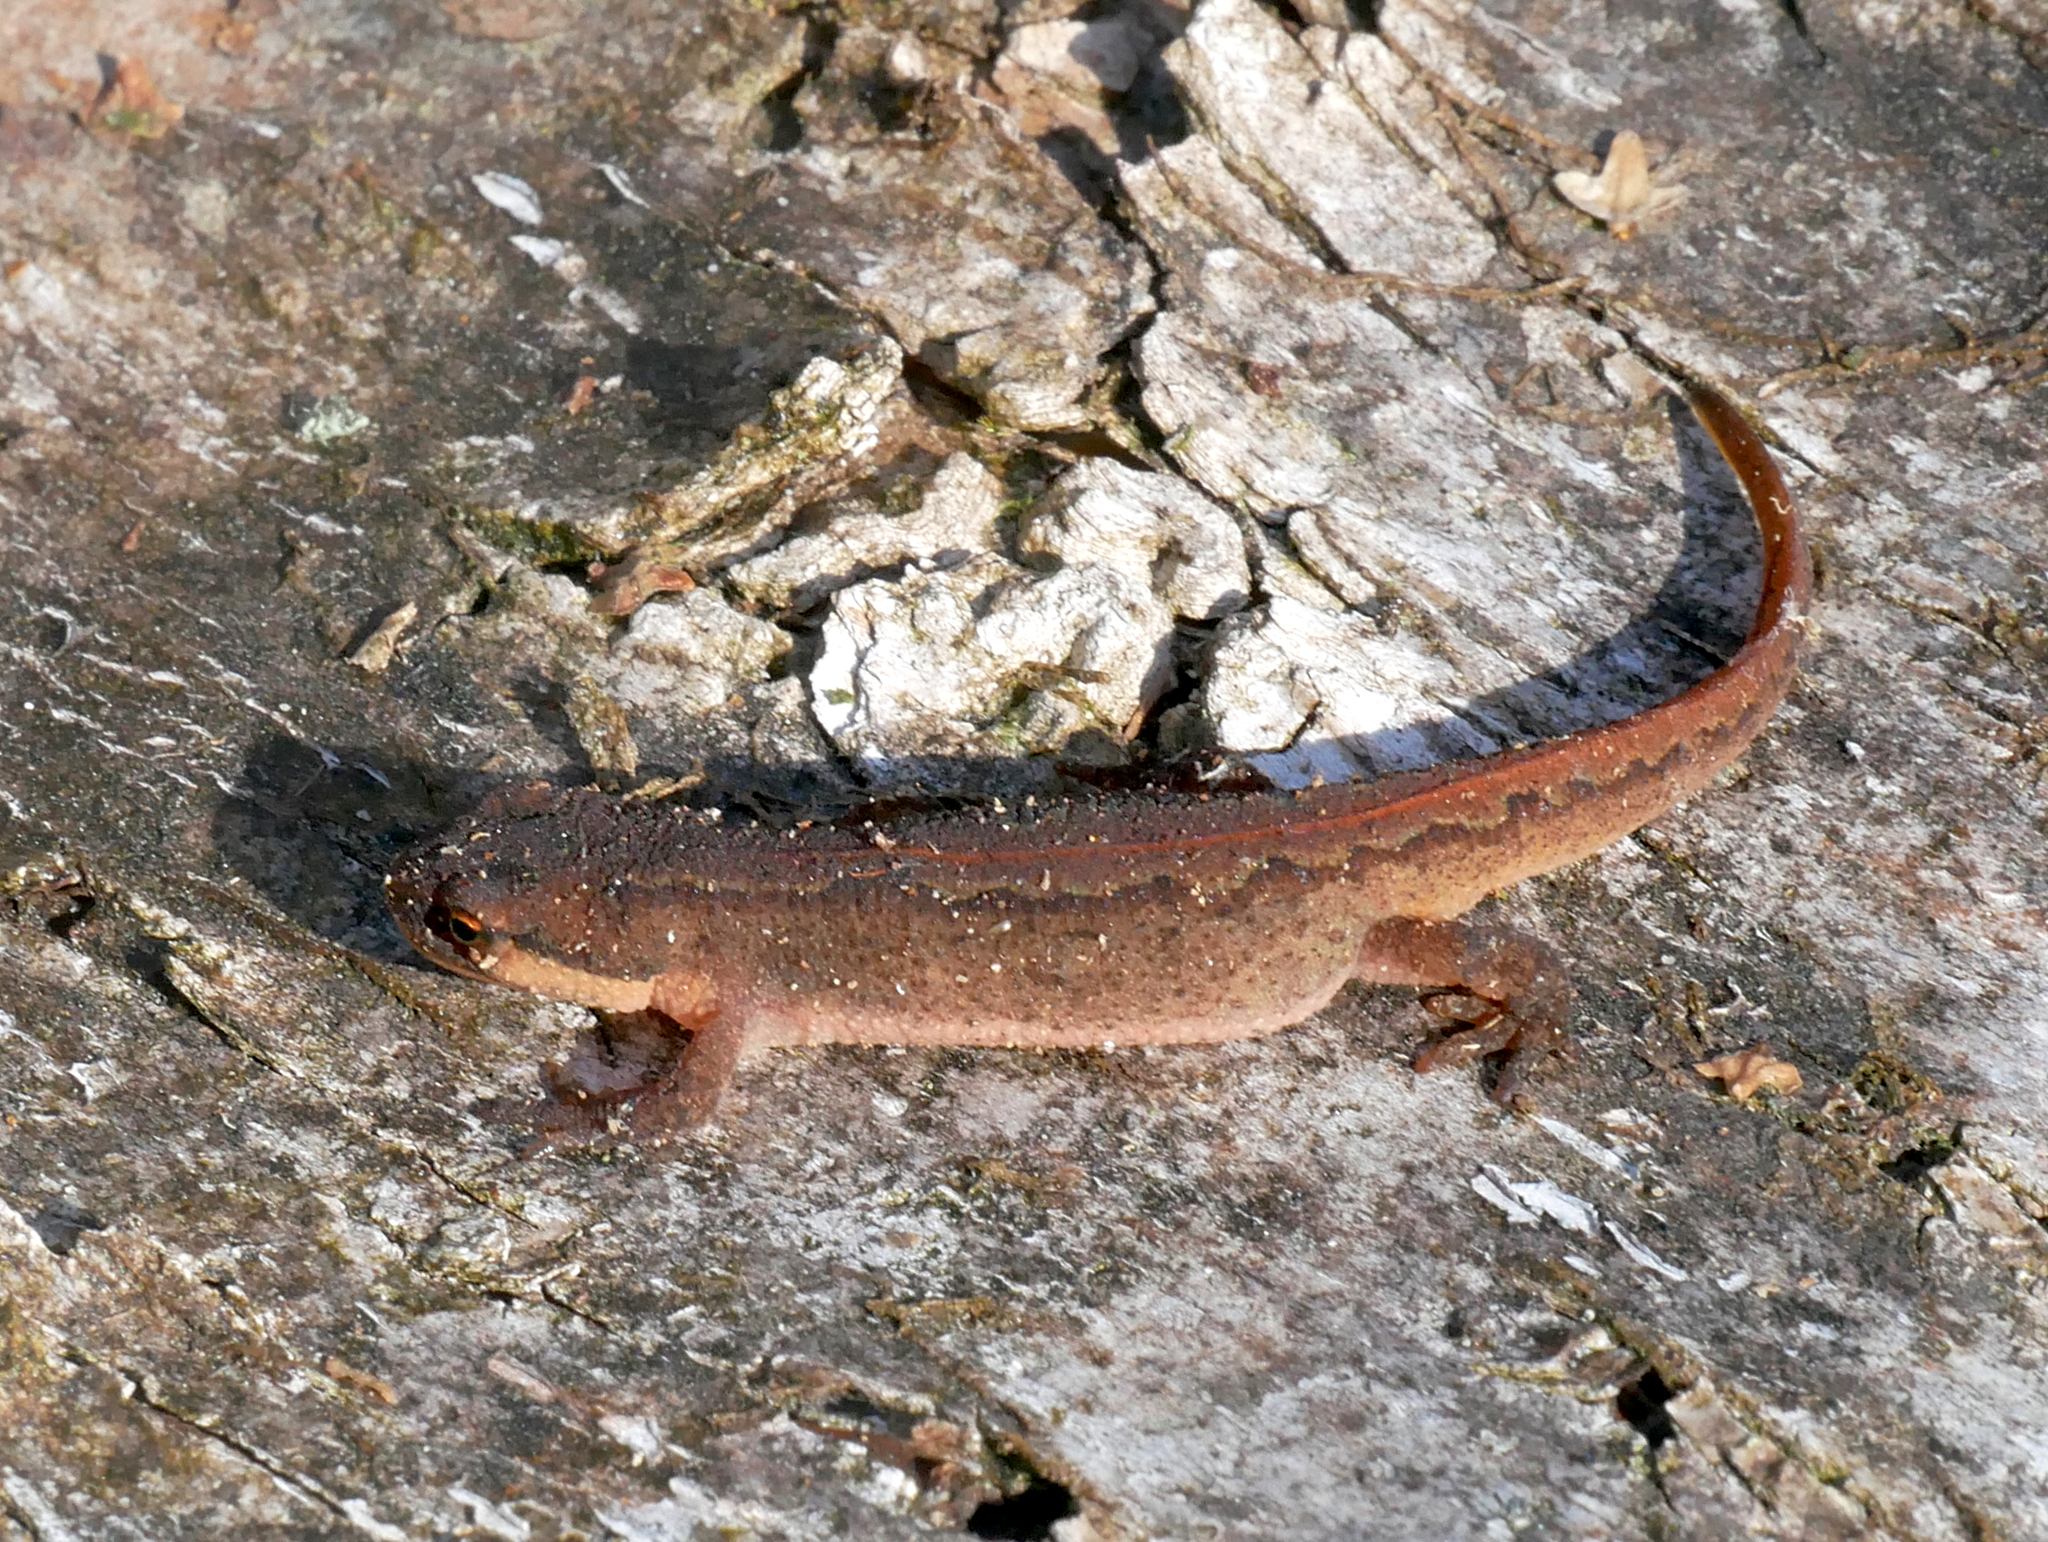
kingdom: Animalia
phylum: Chordata
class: Amphibia
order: Caudata
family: Salamandridae
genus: Lissotriton
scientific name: Lissotriton vulgaris
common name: Smooth newt
